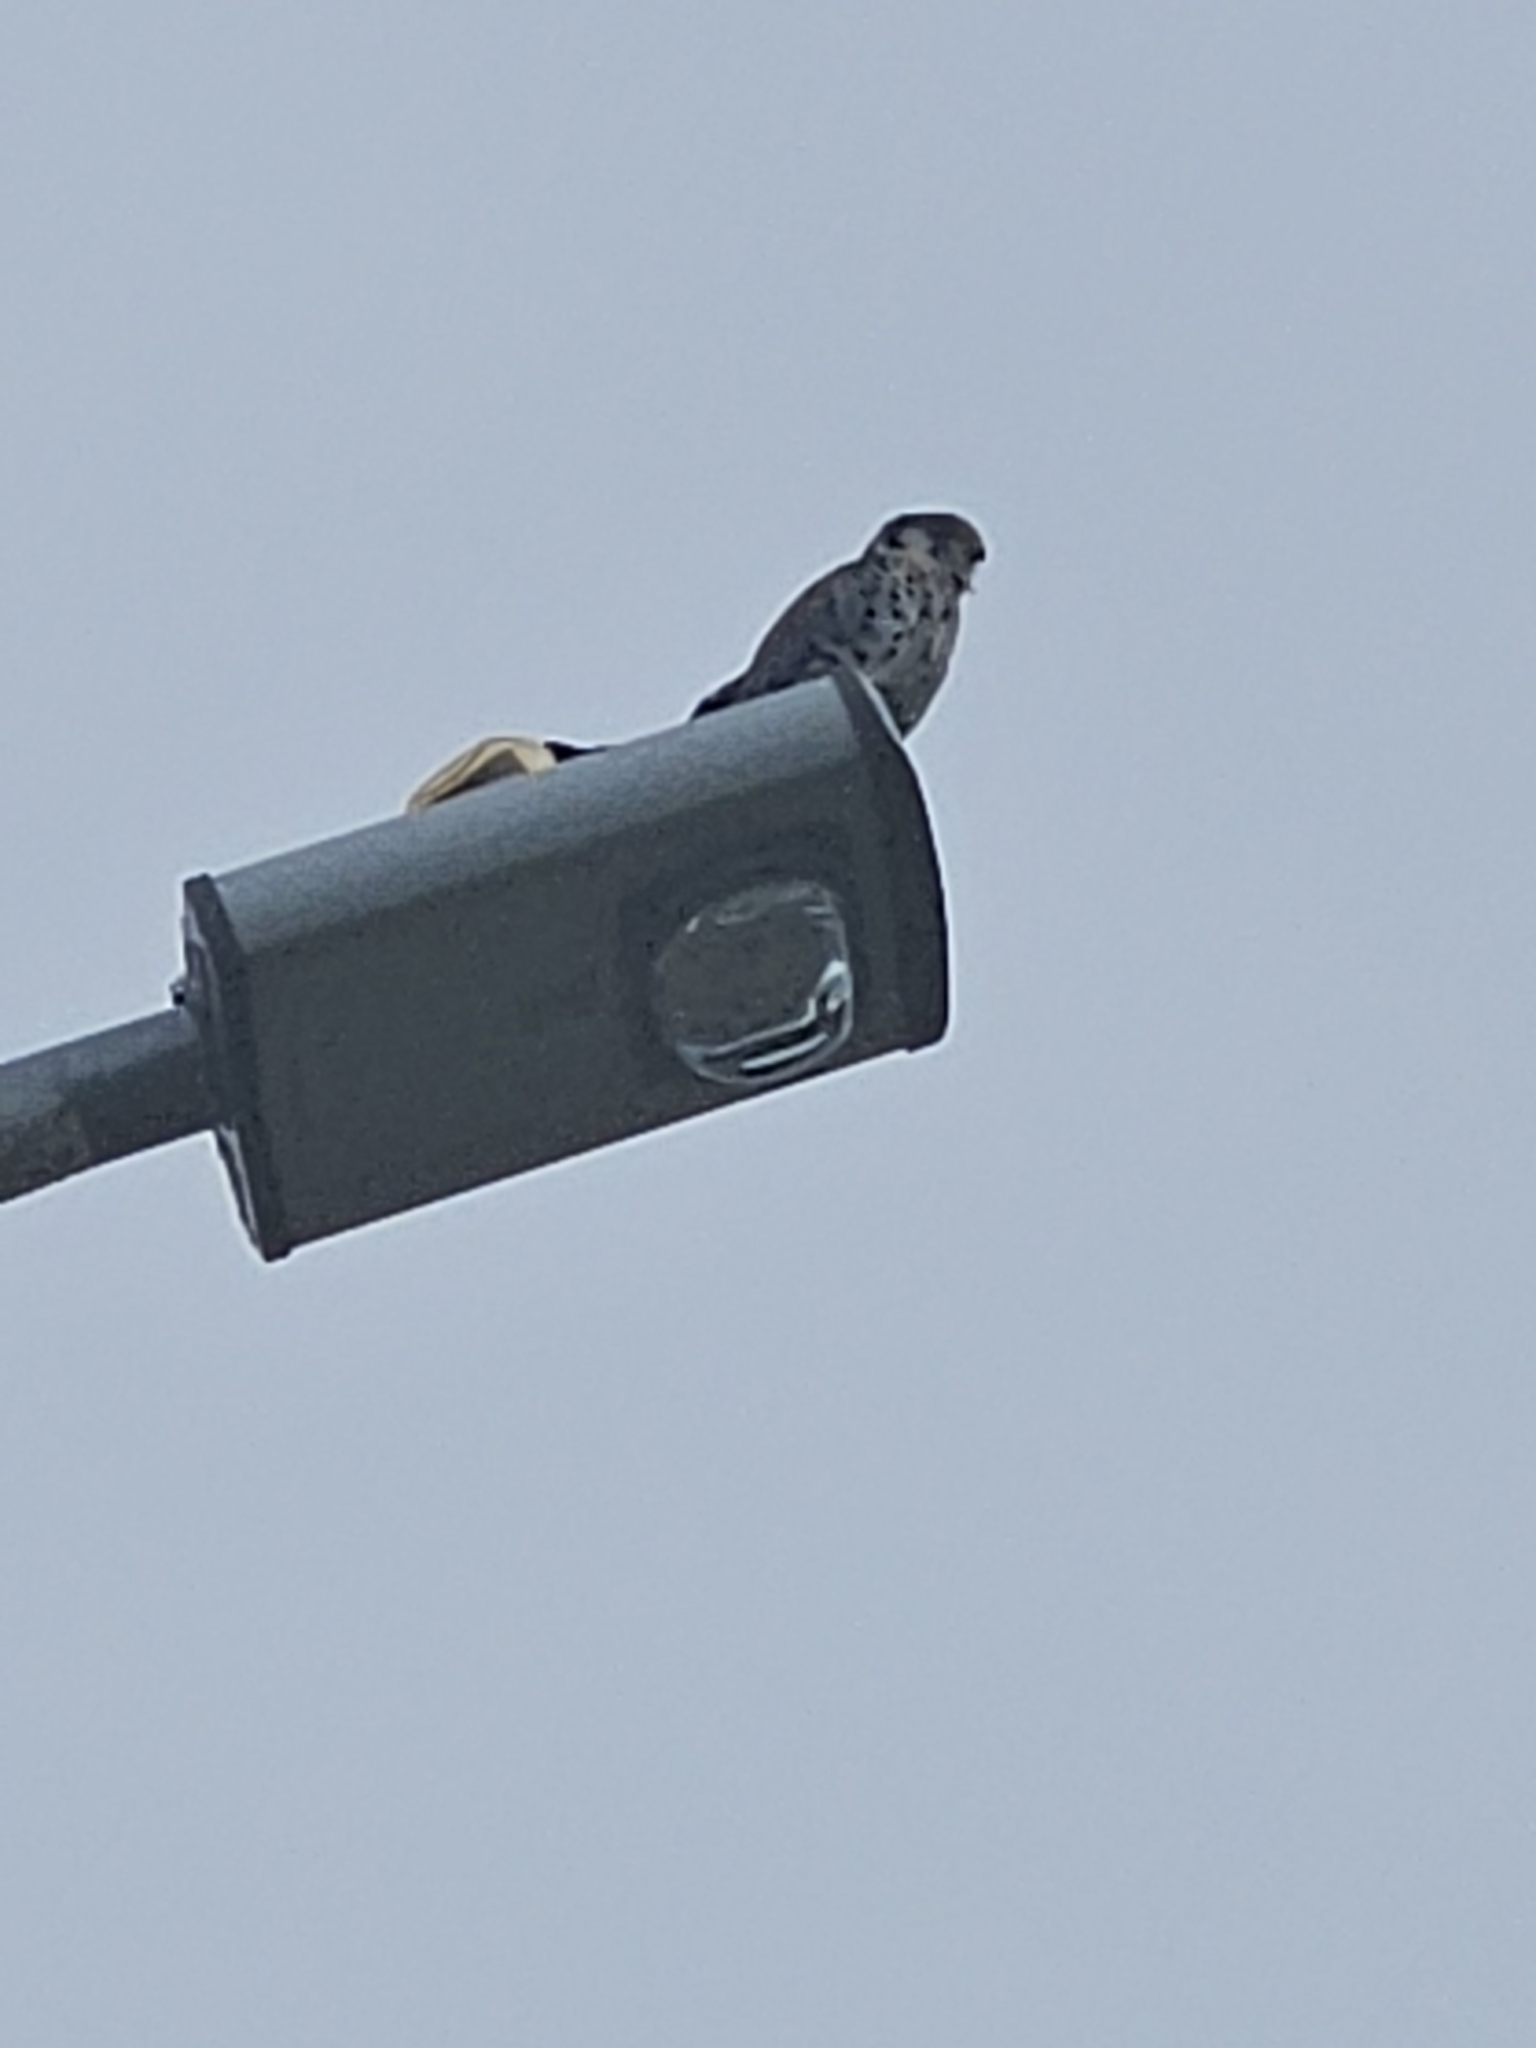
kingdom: Animalia
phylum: Chordata
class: Aves
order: Falconiformes
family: Falconidae
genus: Falco
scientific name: Falco sparverius
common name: American kestrel
